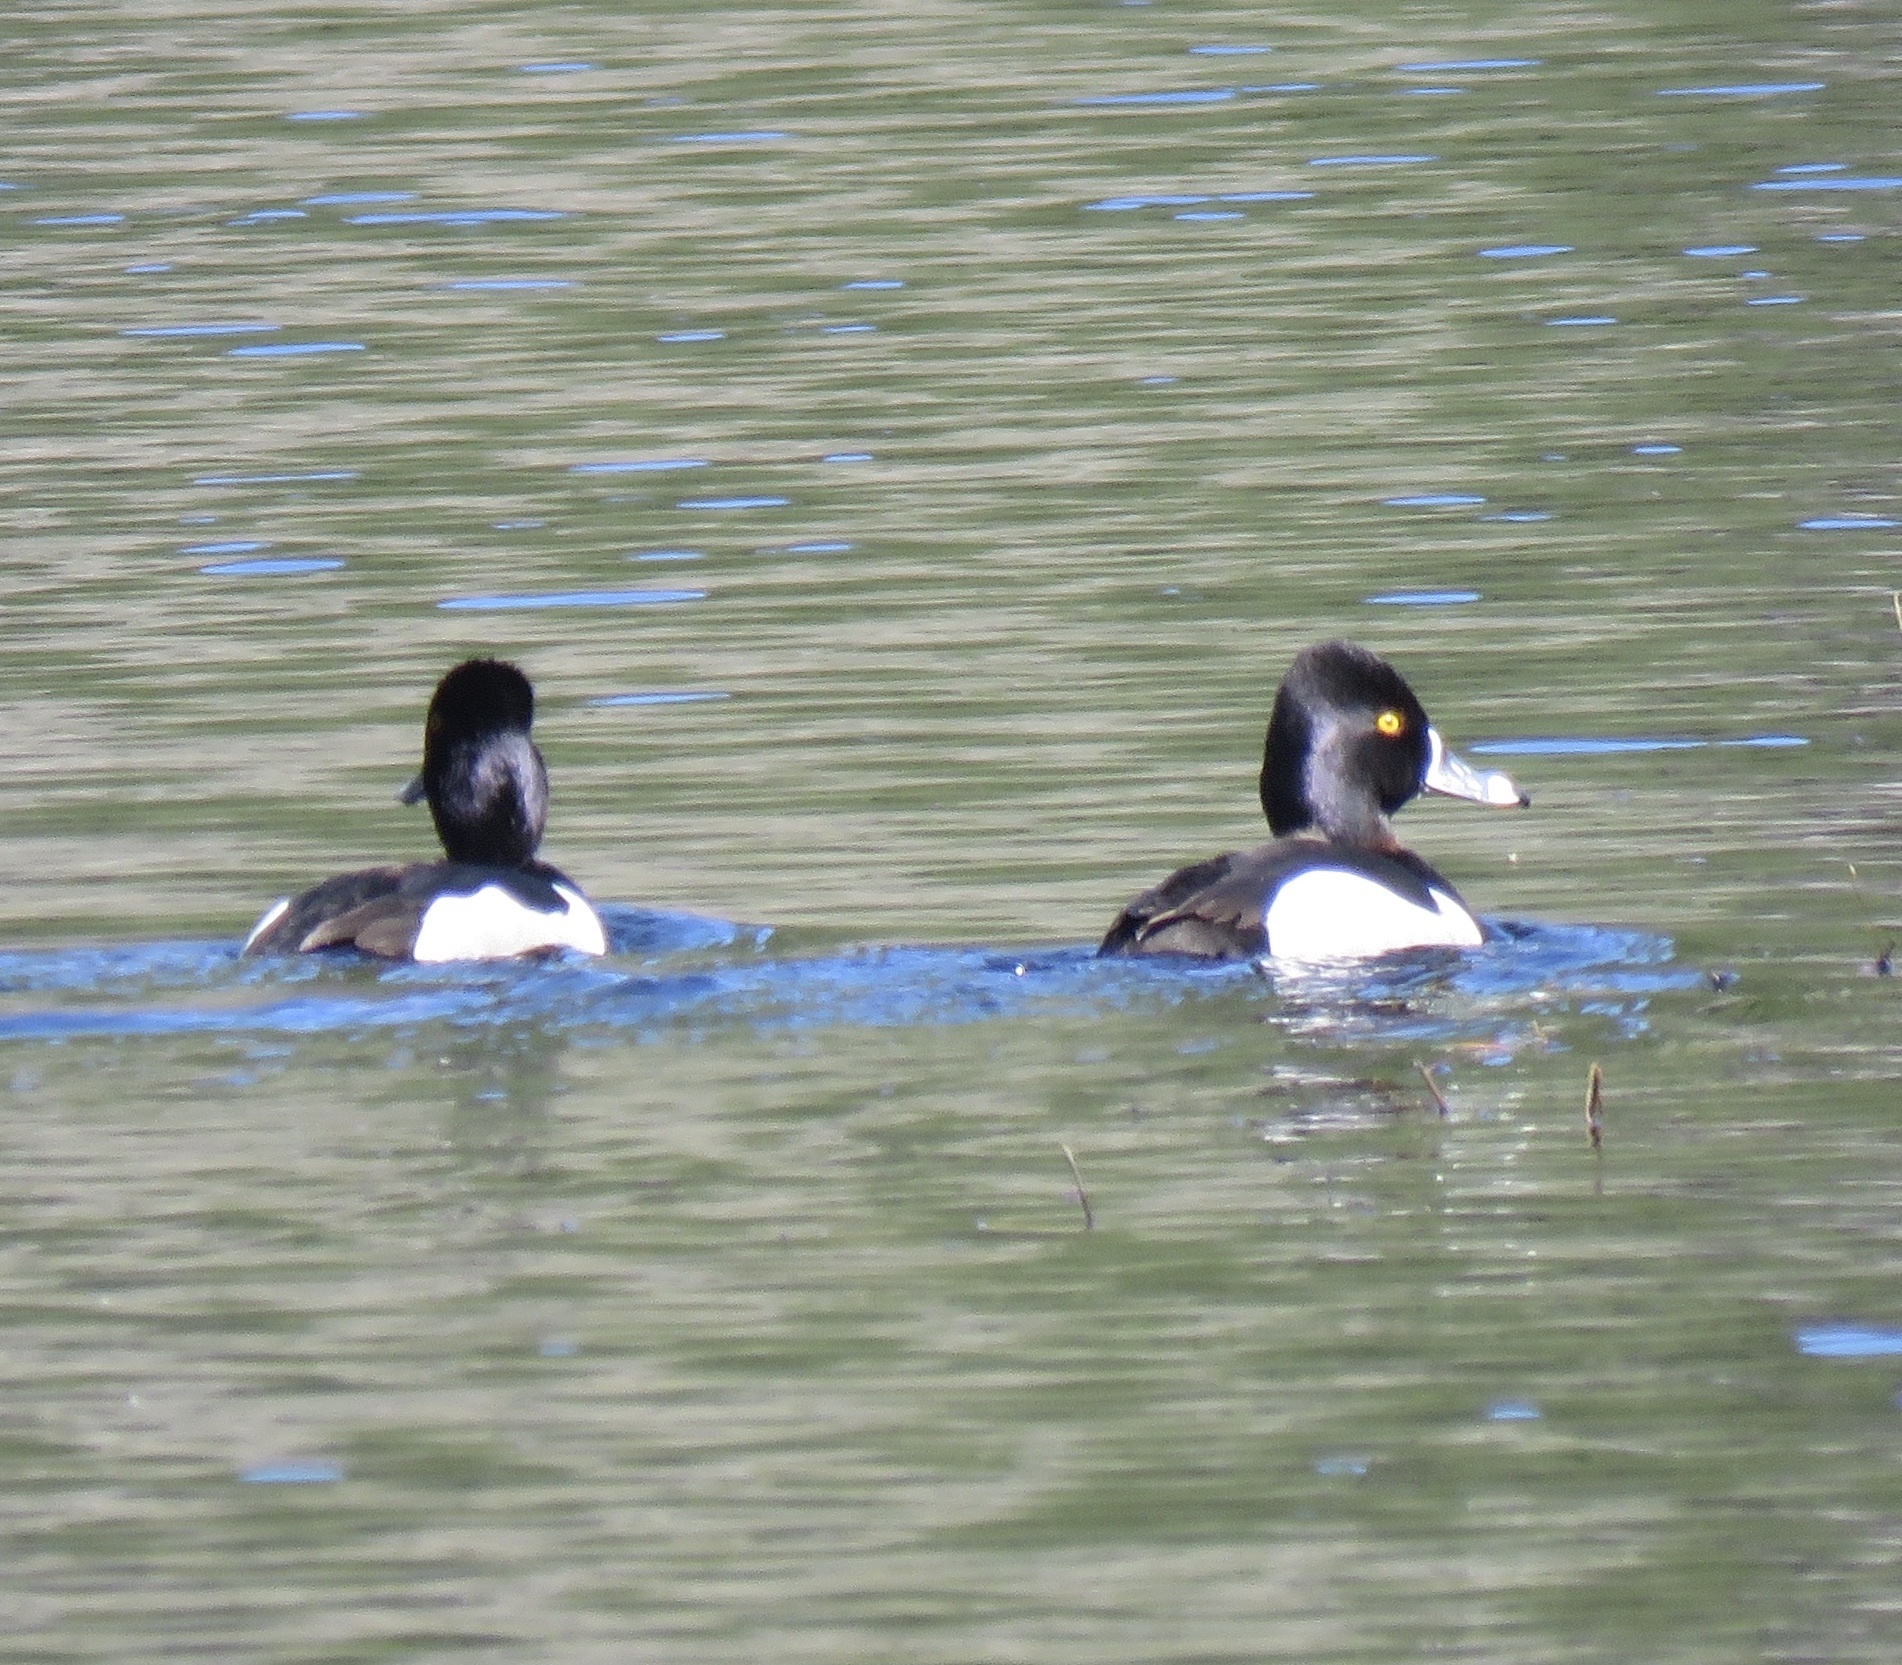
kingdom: Animalia
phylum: Chordata
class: Aves
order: Anseriformes
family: Anatidae
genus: Aythya
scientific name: Aythya collaris
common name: Ring-necked duck
